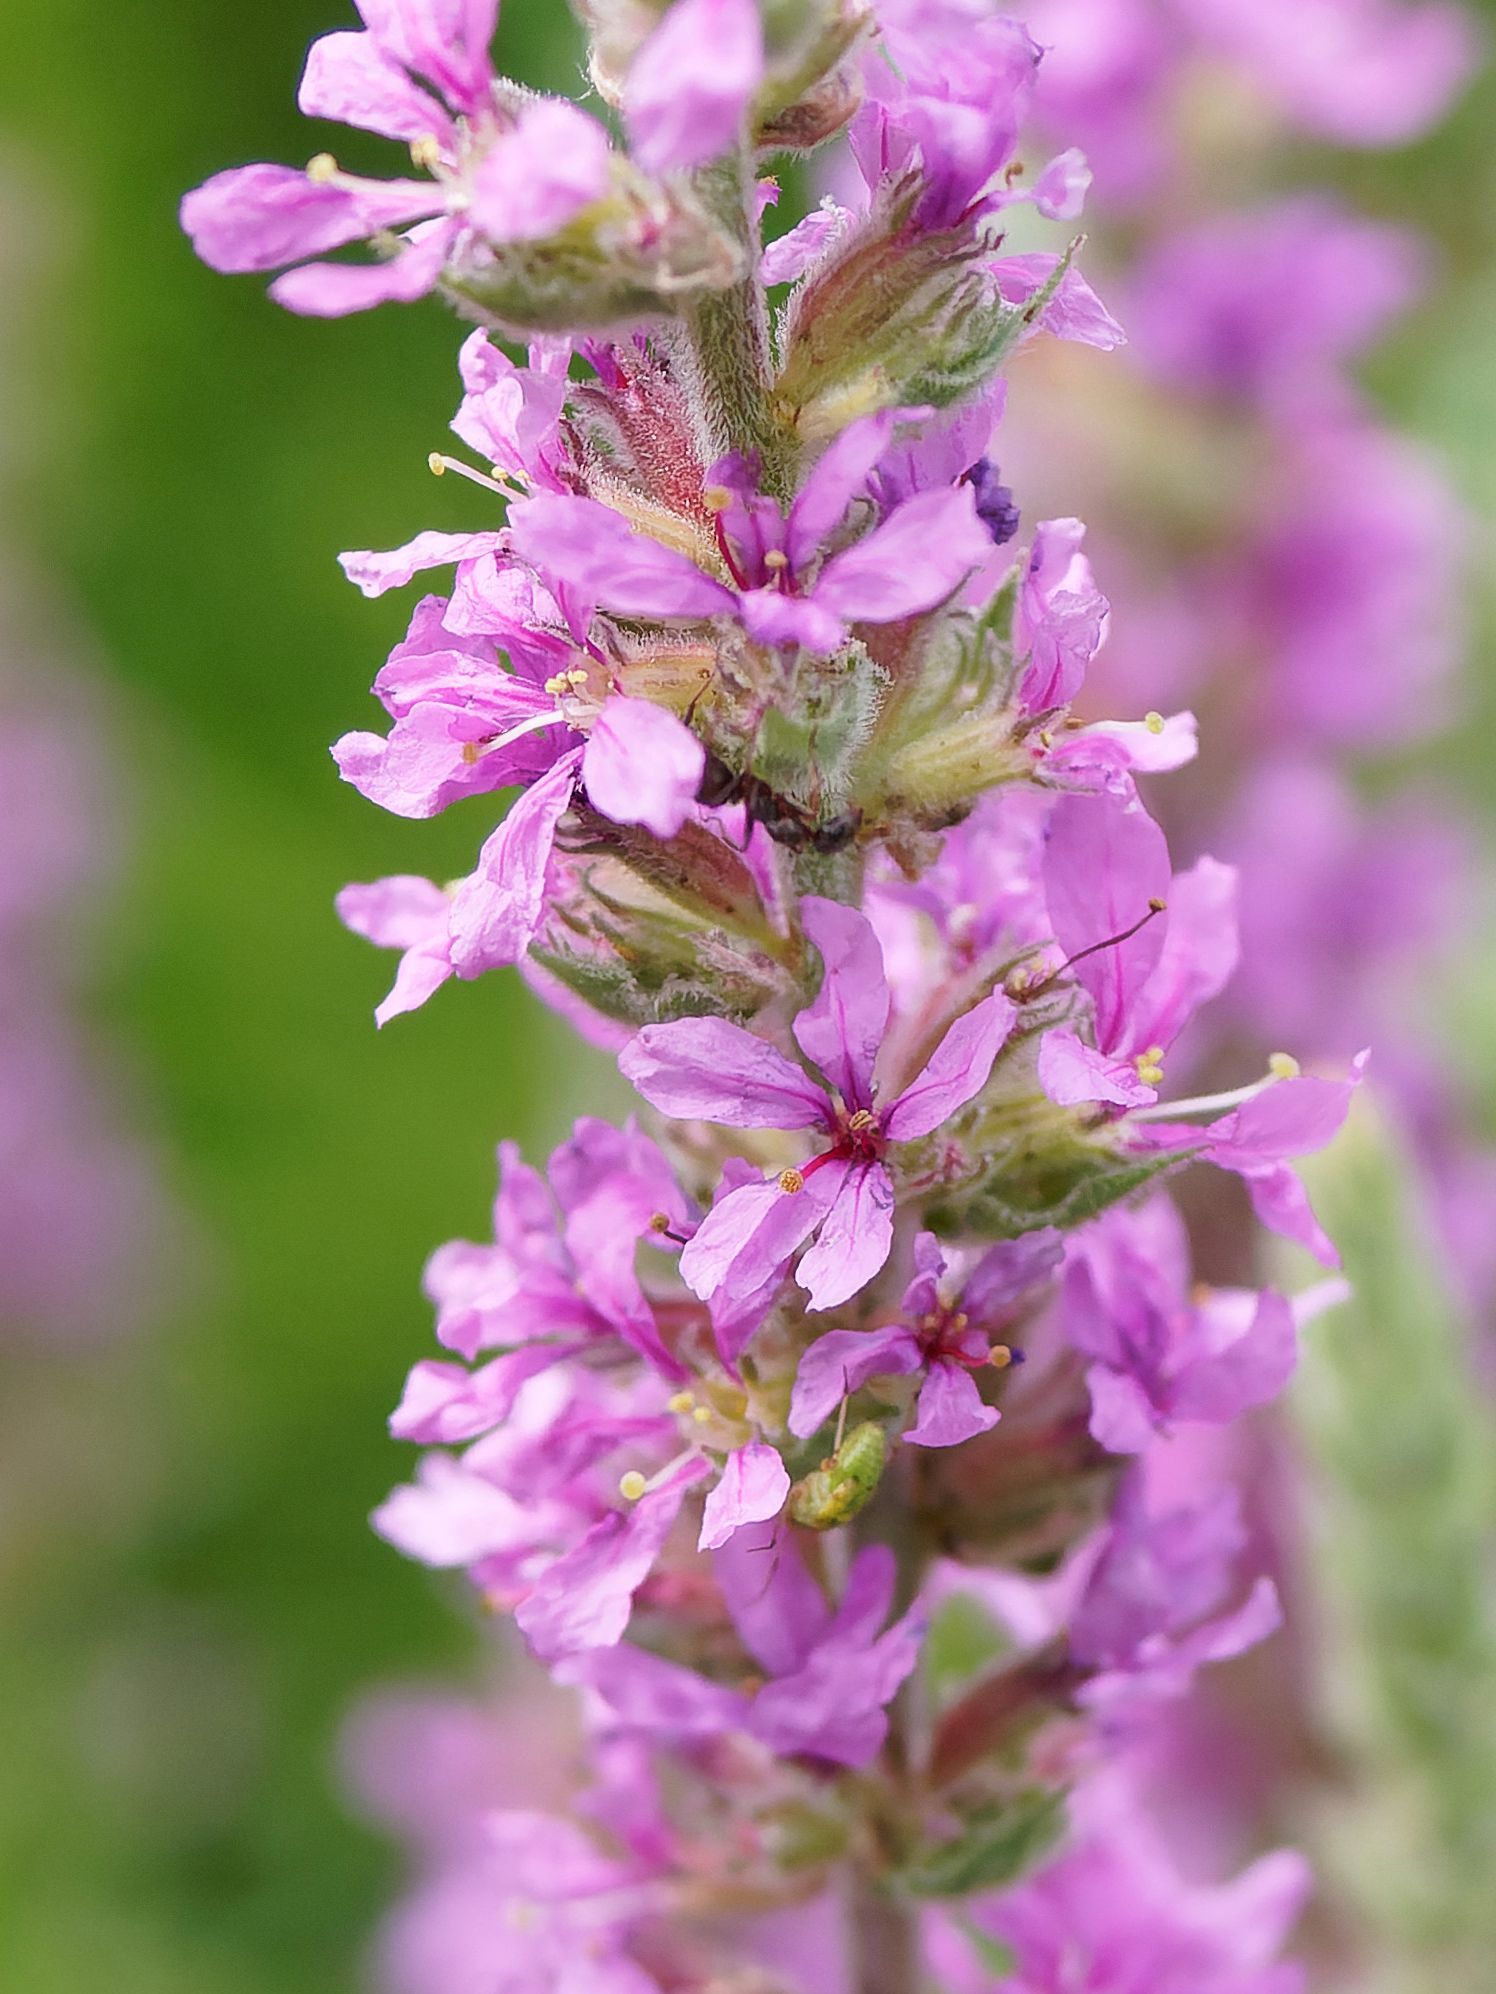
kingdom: Plantae
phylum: Tracheophyta
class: Magnoliopsida
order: Myrtales
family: Lythraceae
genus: Lythrum
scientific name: Lythrum salicaria
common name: Purple loosestrife
